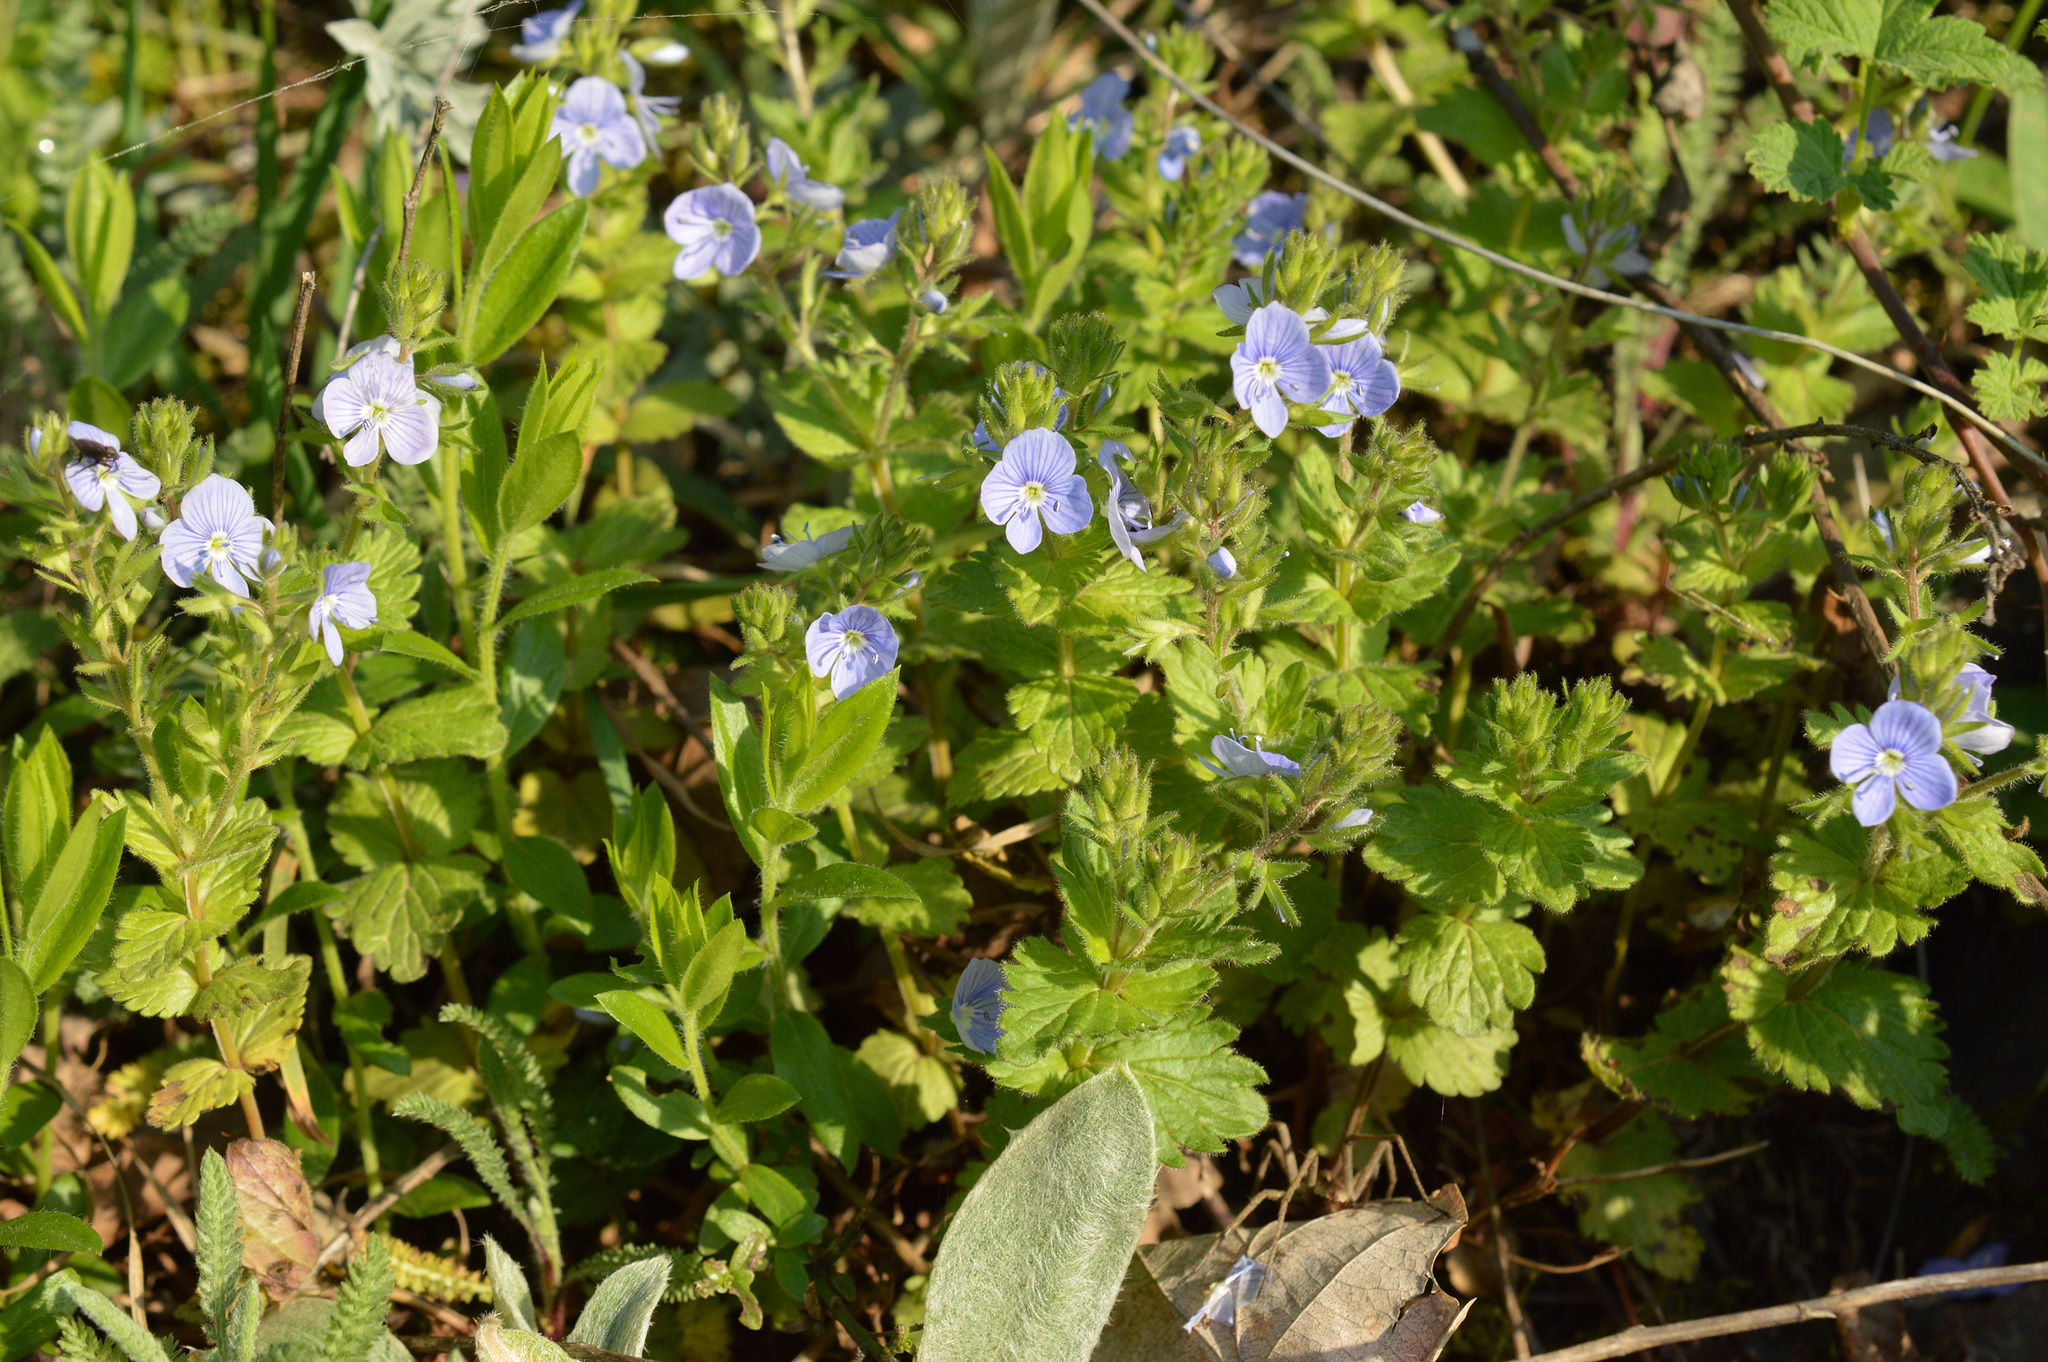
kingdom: Plantae
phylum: Tracheophyta
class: Magnoliopsida
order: Lamiales
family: Plantaginaceae
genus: Veronica
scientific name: Veronica chamaedrys
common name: Germander speedwell
